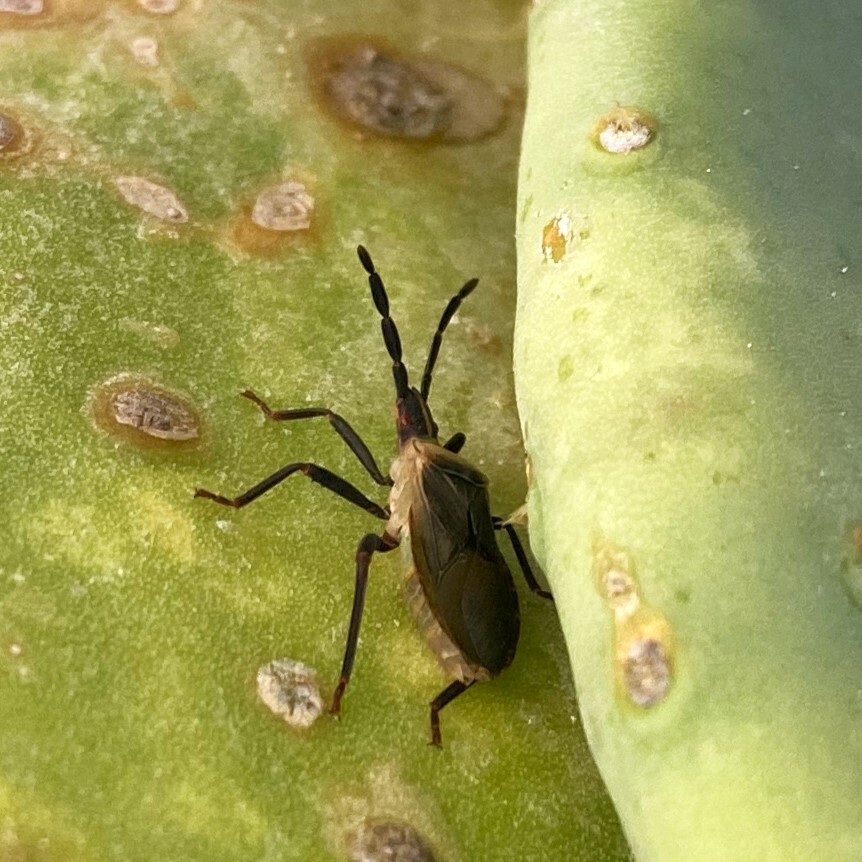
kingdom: Animalia
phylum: Arthropoda
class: Insecta
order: Hemiptera
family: Coreidae
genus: Chelinidea
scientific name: Chelinidea vittiger
